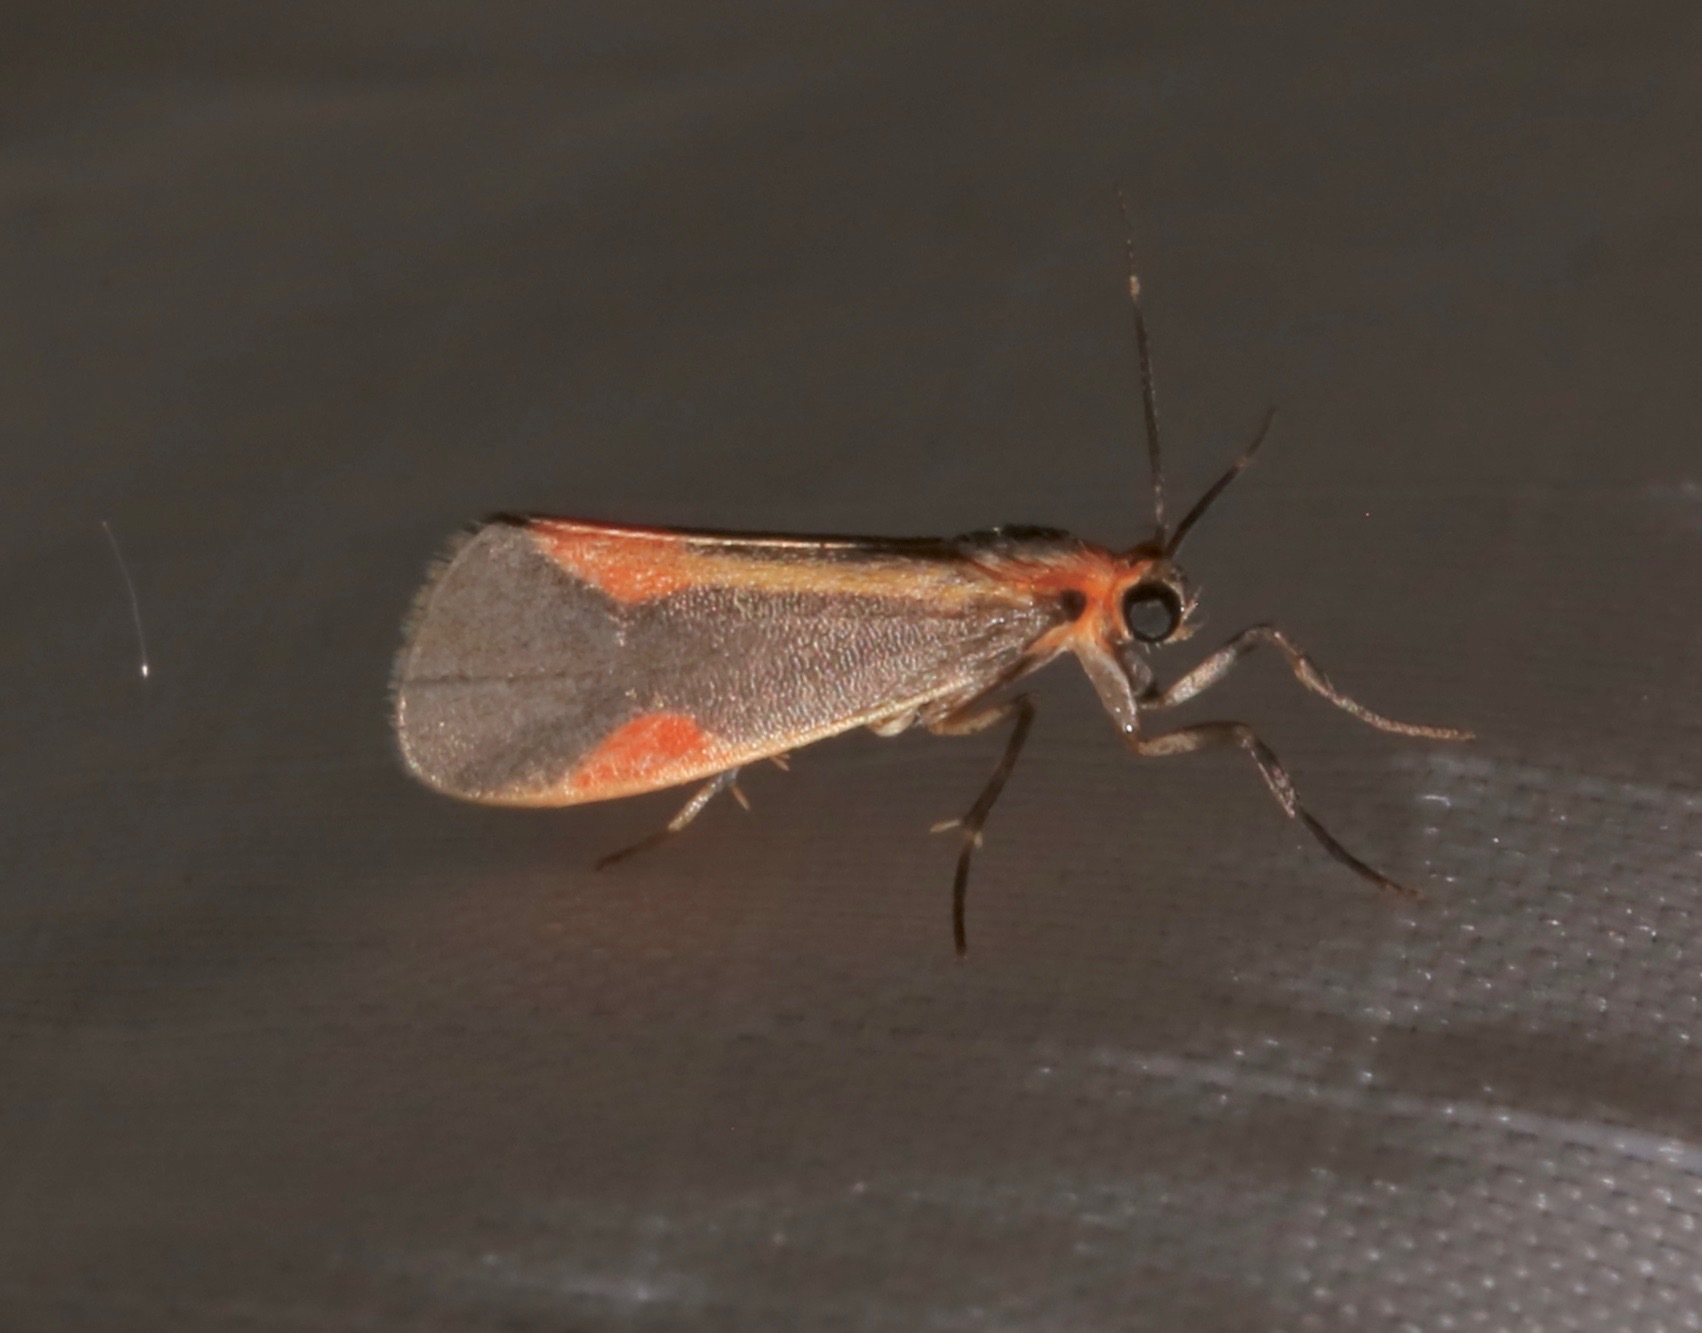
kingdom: Animalia
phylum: Arthropoda
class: Insecta
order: Lepidoptera
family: Erebidae
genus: Cisthene
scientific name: Cisthene subjecta
